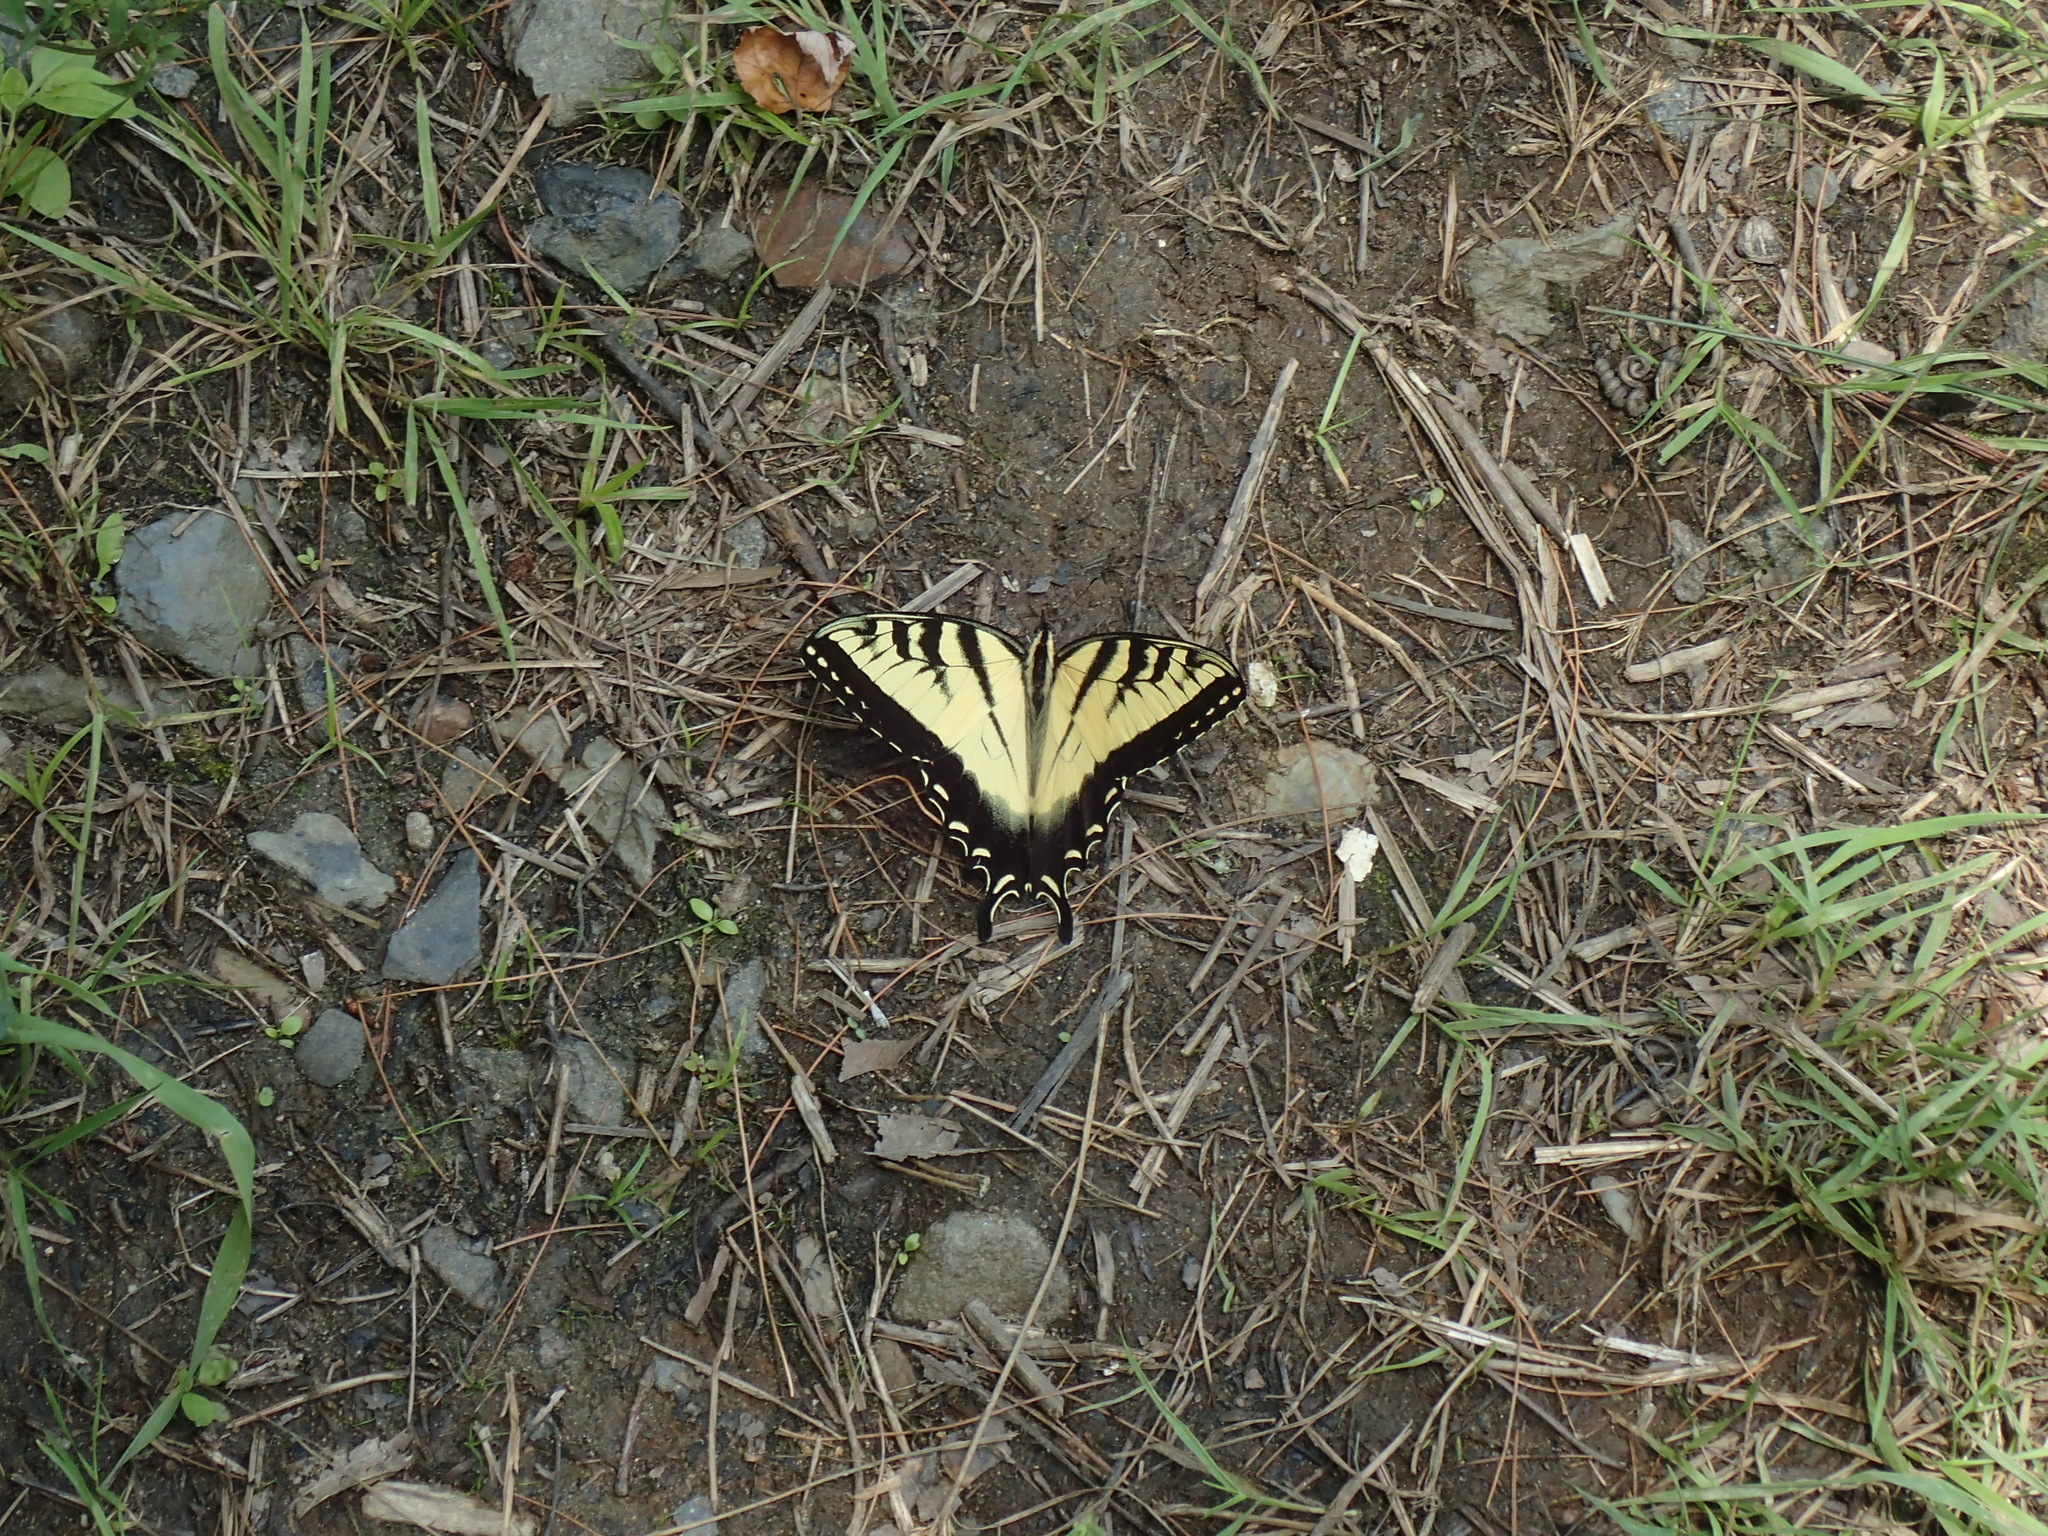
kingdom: Animalia
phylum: Arthropoda
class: Insecta
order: Lepidoptera
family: Papilionidae
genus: Papilio
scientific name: Papilio glaucus
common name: Tiger swallowtail
